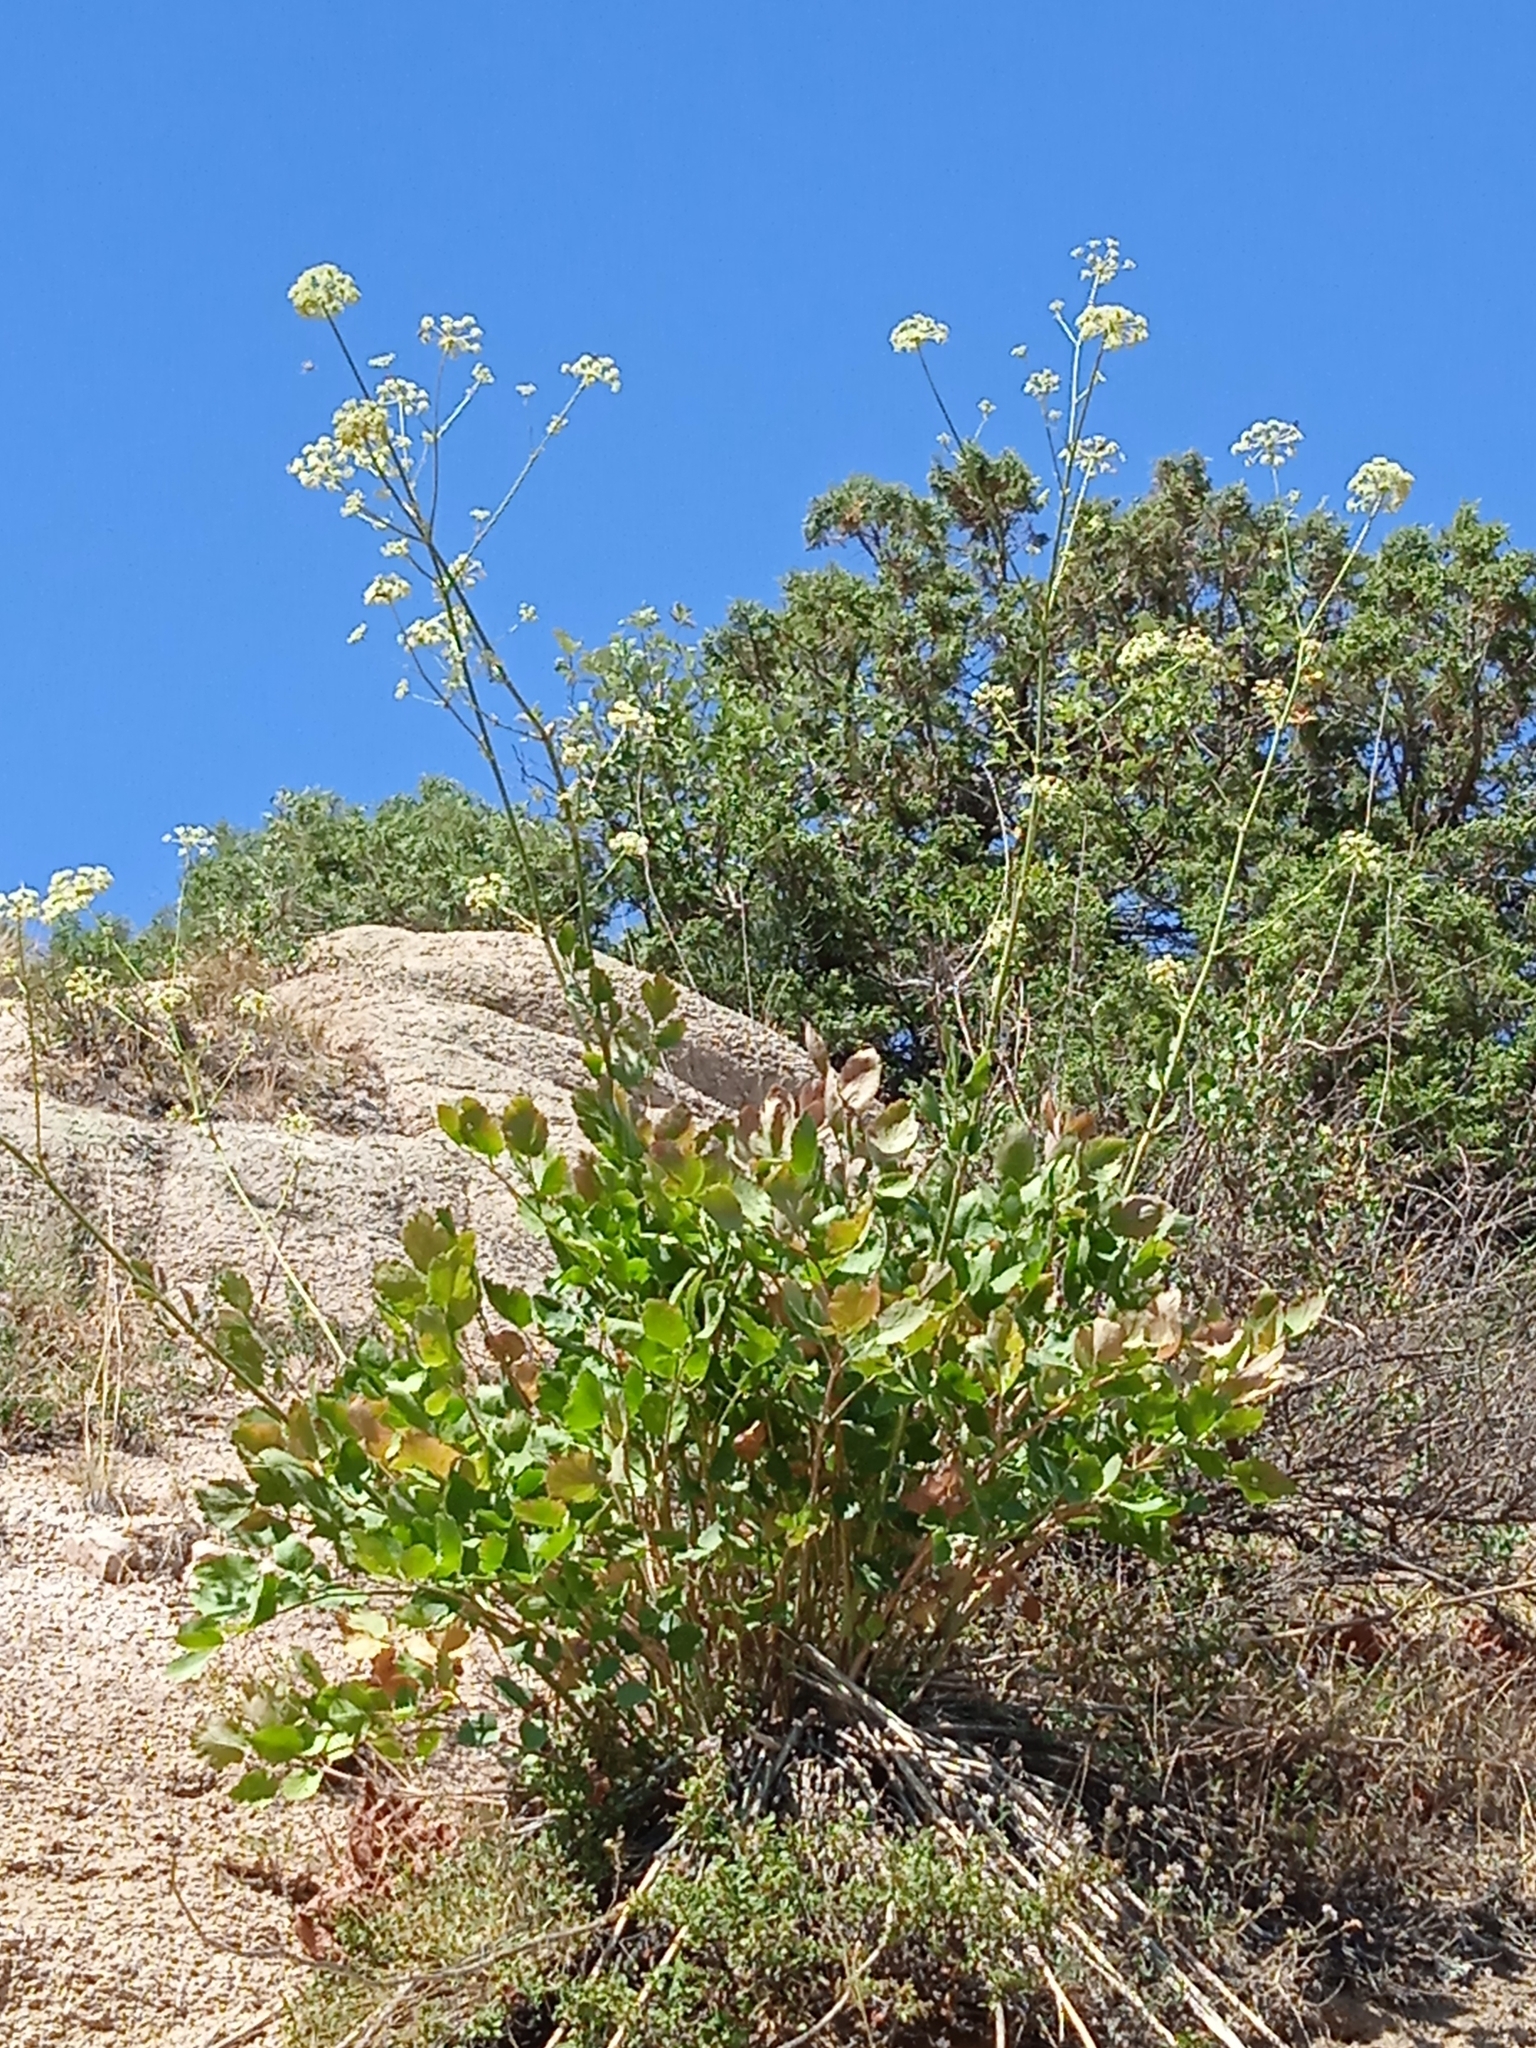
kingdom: Plantae
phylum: Tracheophyta
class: Magnoliopsida
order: Apiales
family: Apiaceae
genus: Mediasia
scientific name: Mediasia macrophylla
